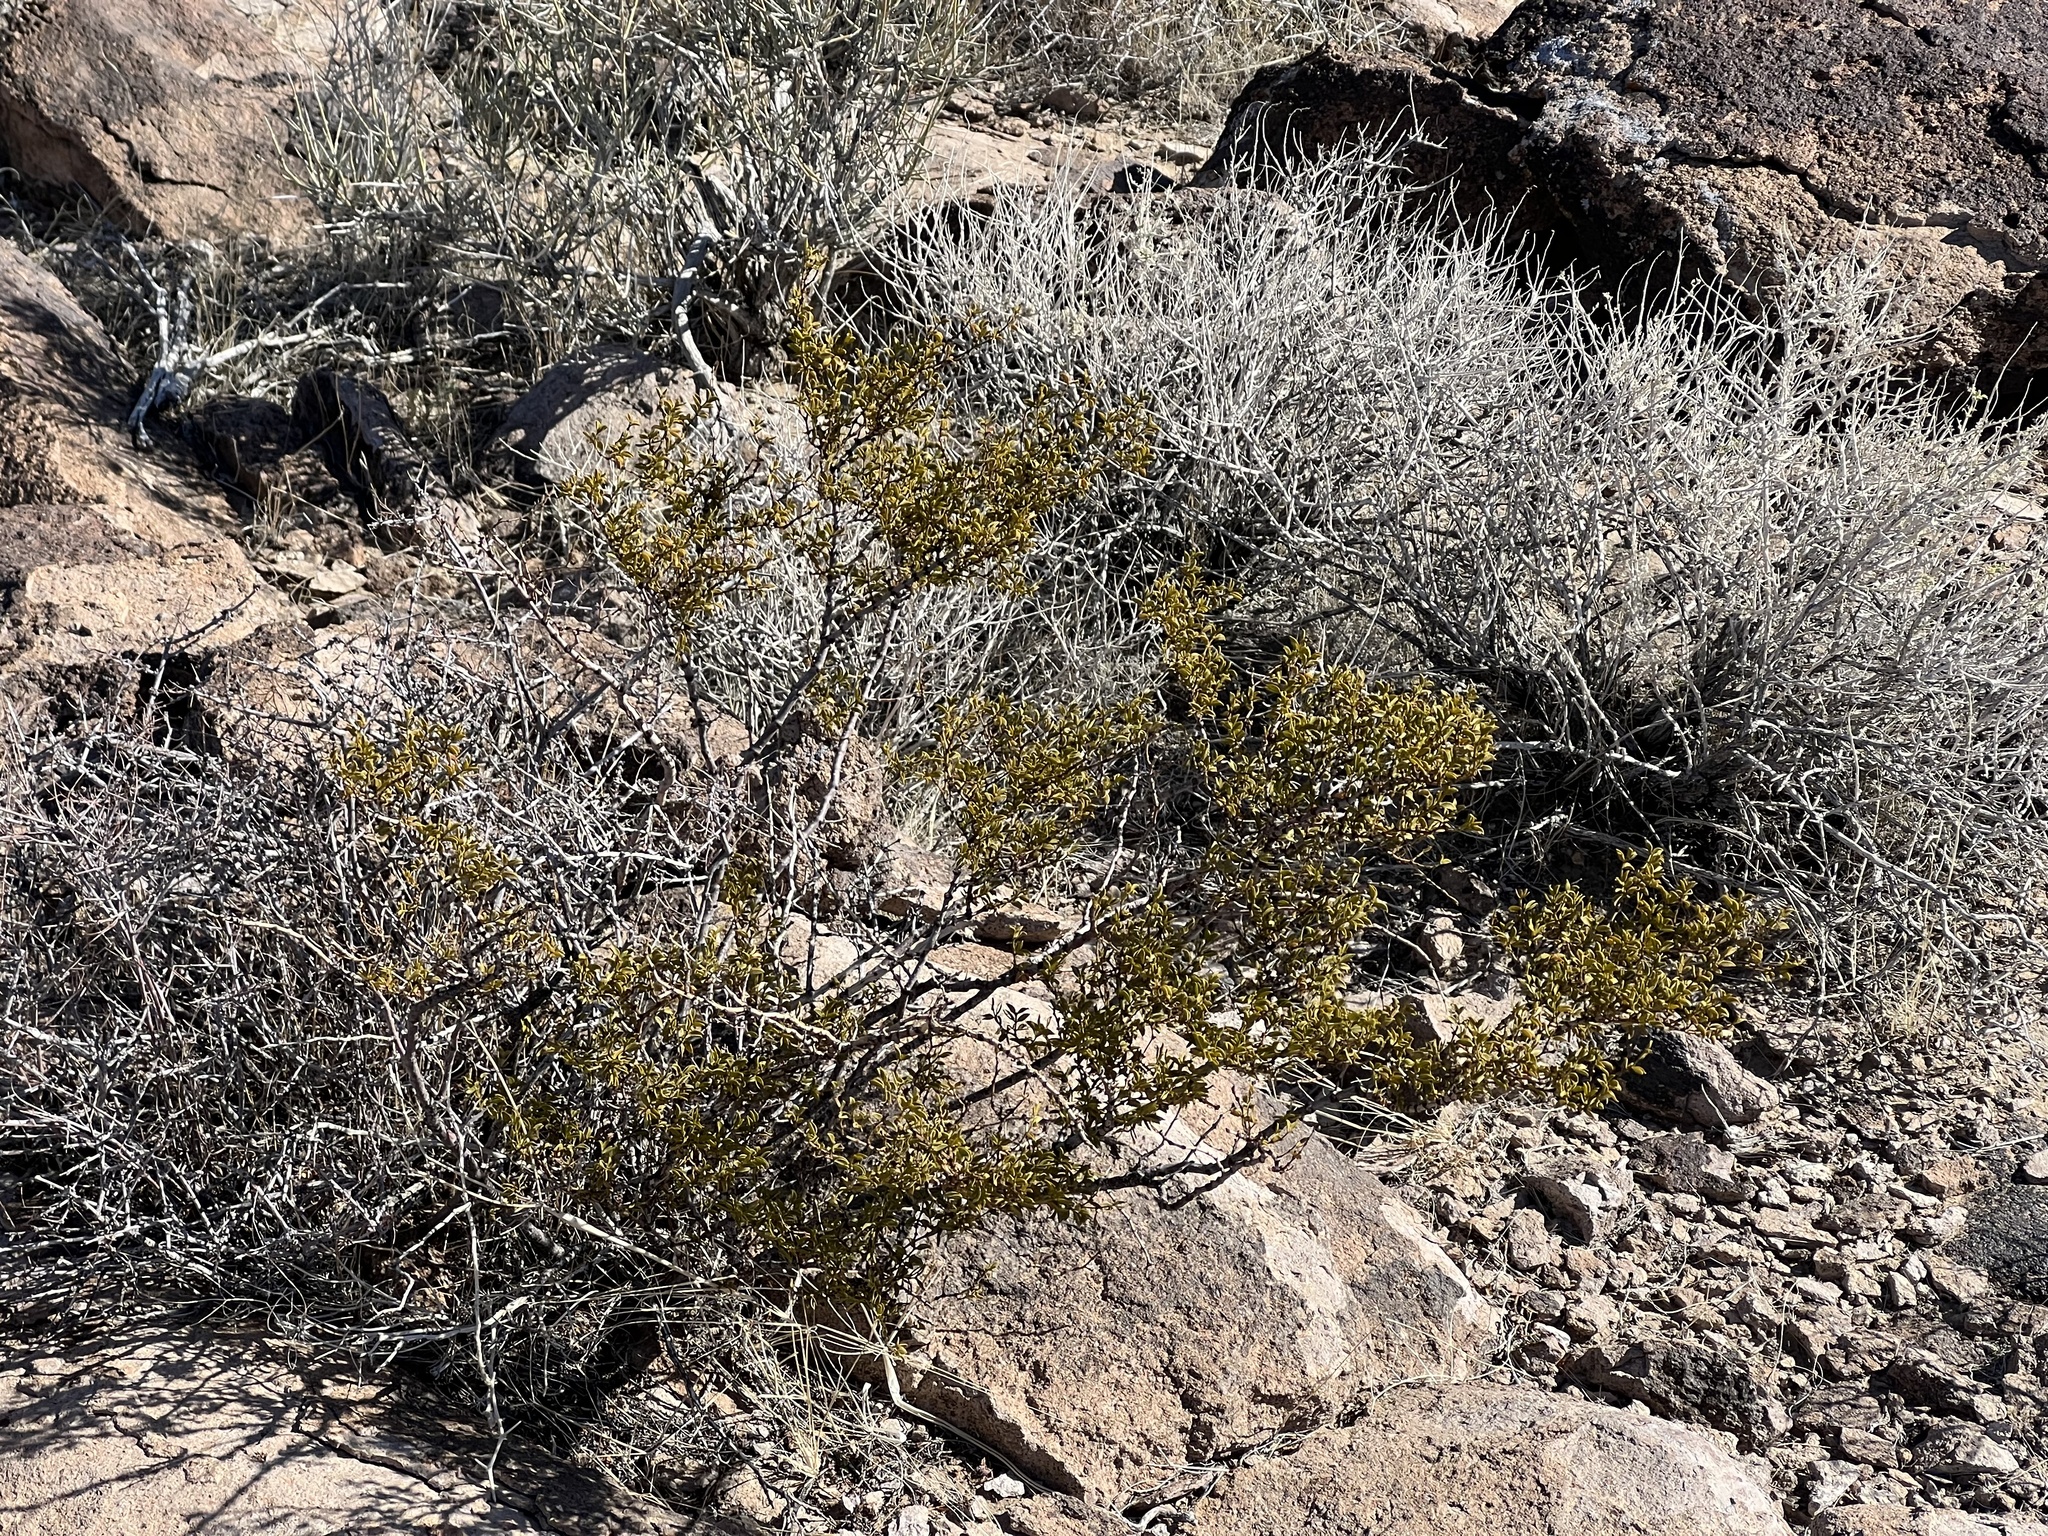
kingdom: Plantae
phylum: Tracheophyta
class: Magnoliopsida
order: Zygophyllales
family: Zygophyllaceae
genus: Larrea
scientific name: Larrea tridentata
